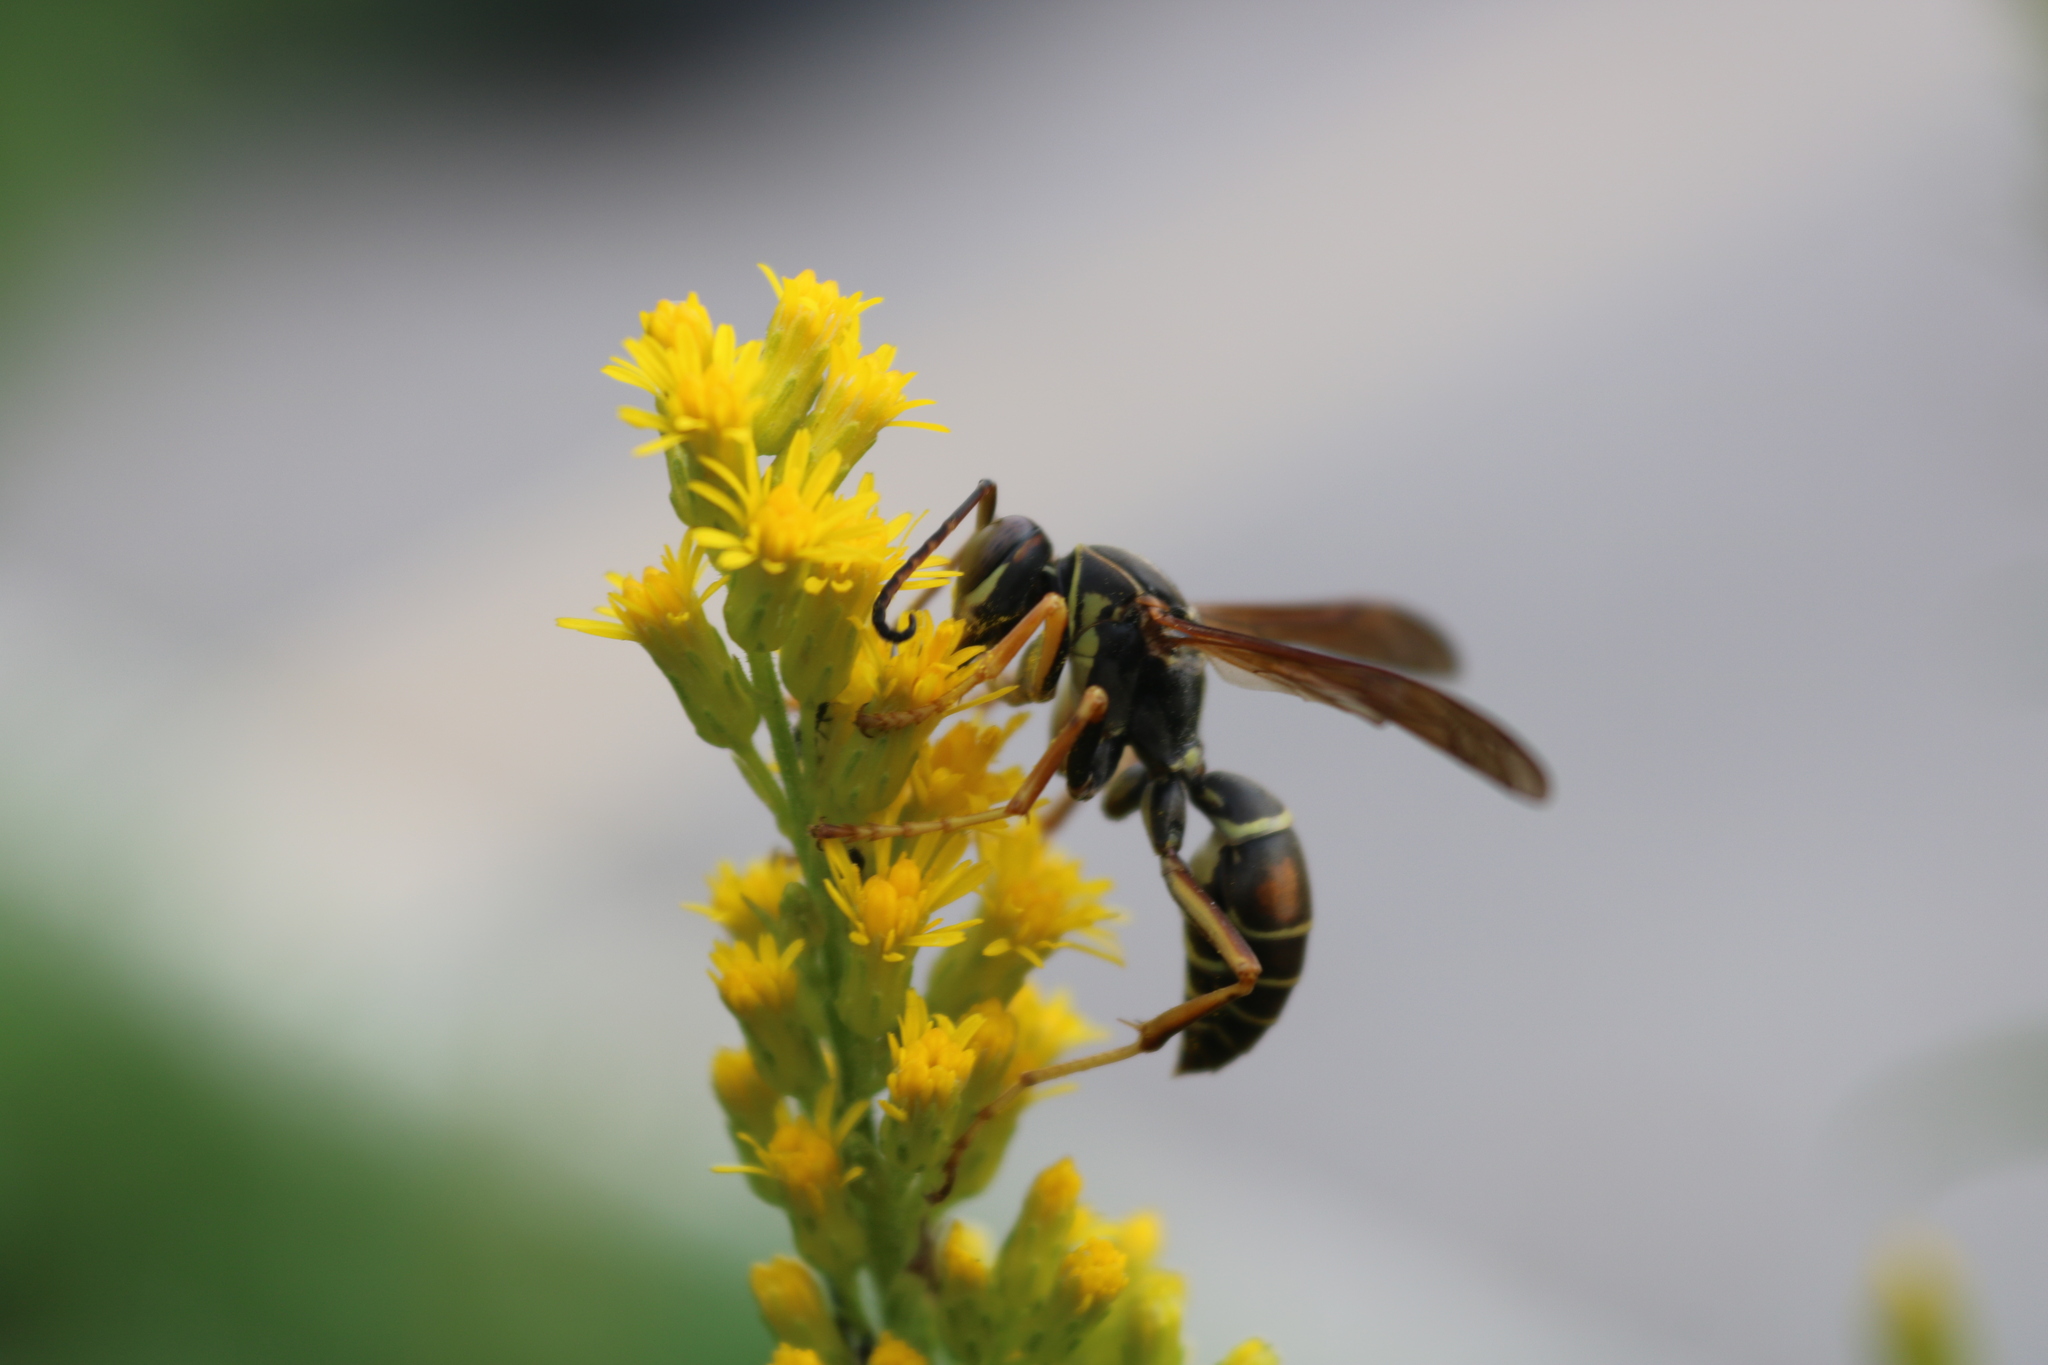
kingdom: Animalia
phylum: Arthropoda
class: Insecta
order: Hymenoptera
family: Eumenidae
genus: Polistes
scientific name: Polistes fuscatus
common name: Dark paper wasp
